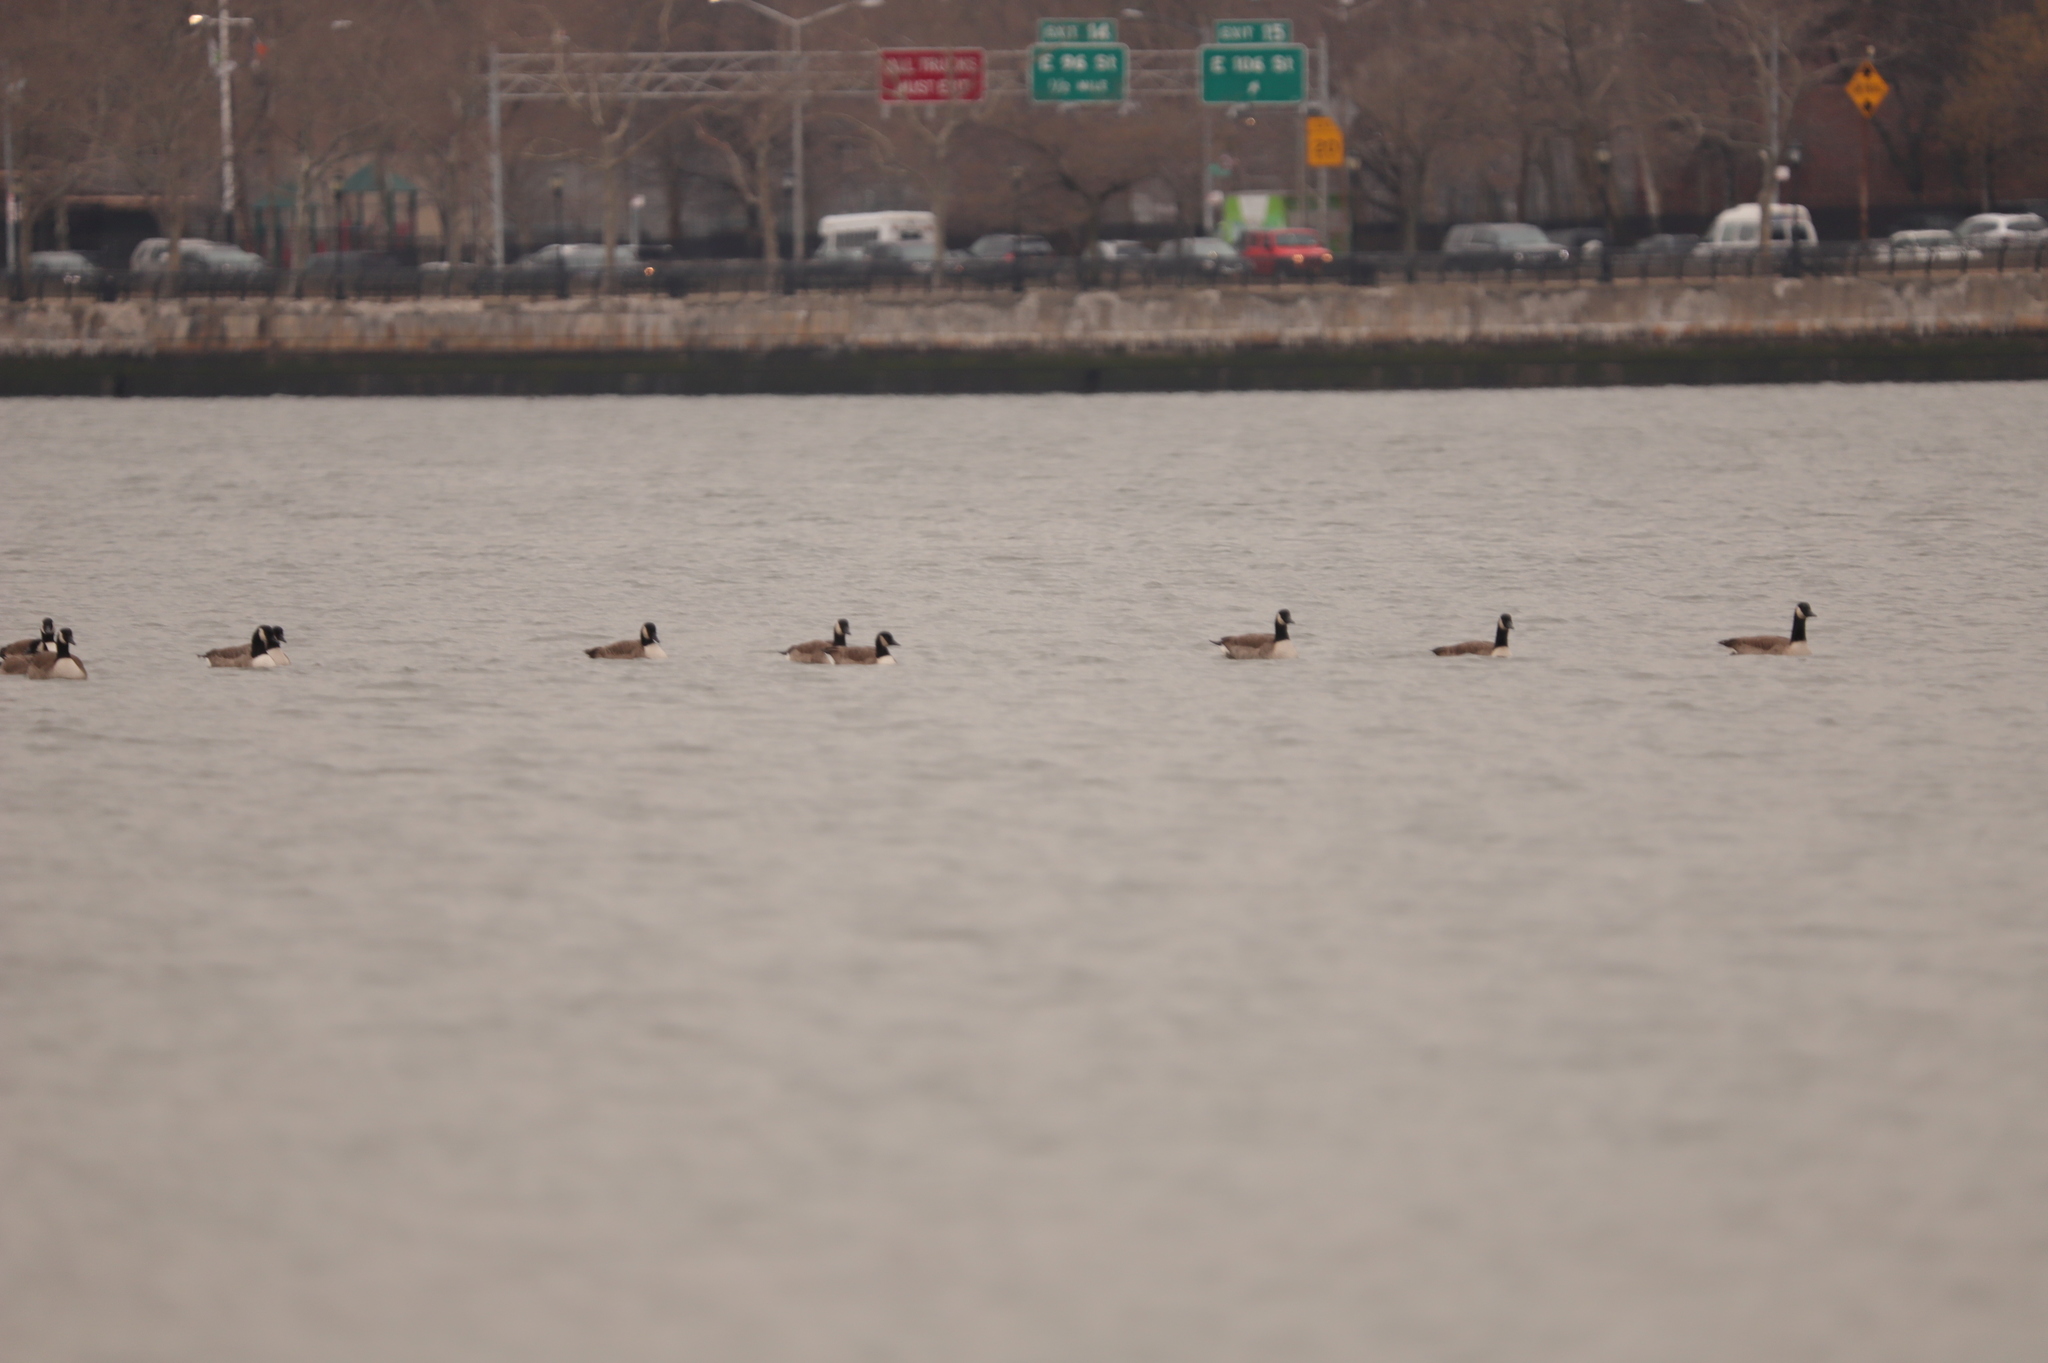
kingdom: Animalia
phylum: Chordata
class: Aves
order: Anseriformes
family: Anatidae
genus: Branta
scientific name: Branta canadensis
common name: Canada goose
